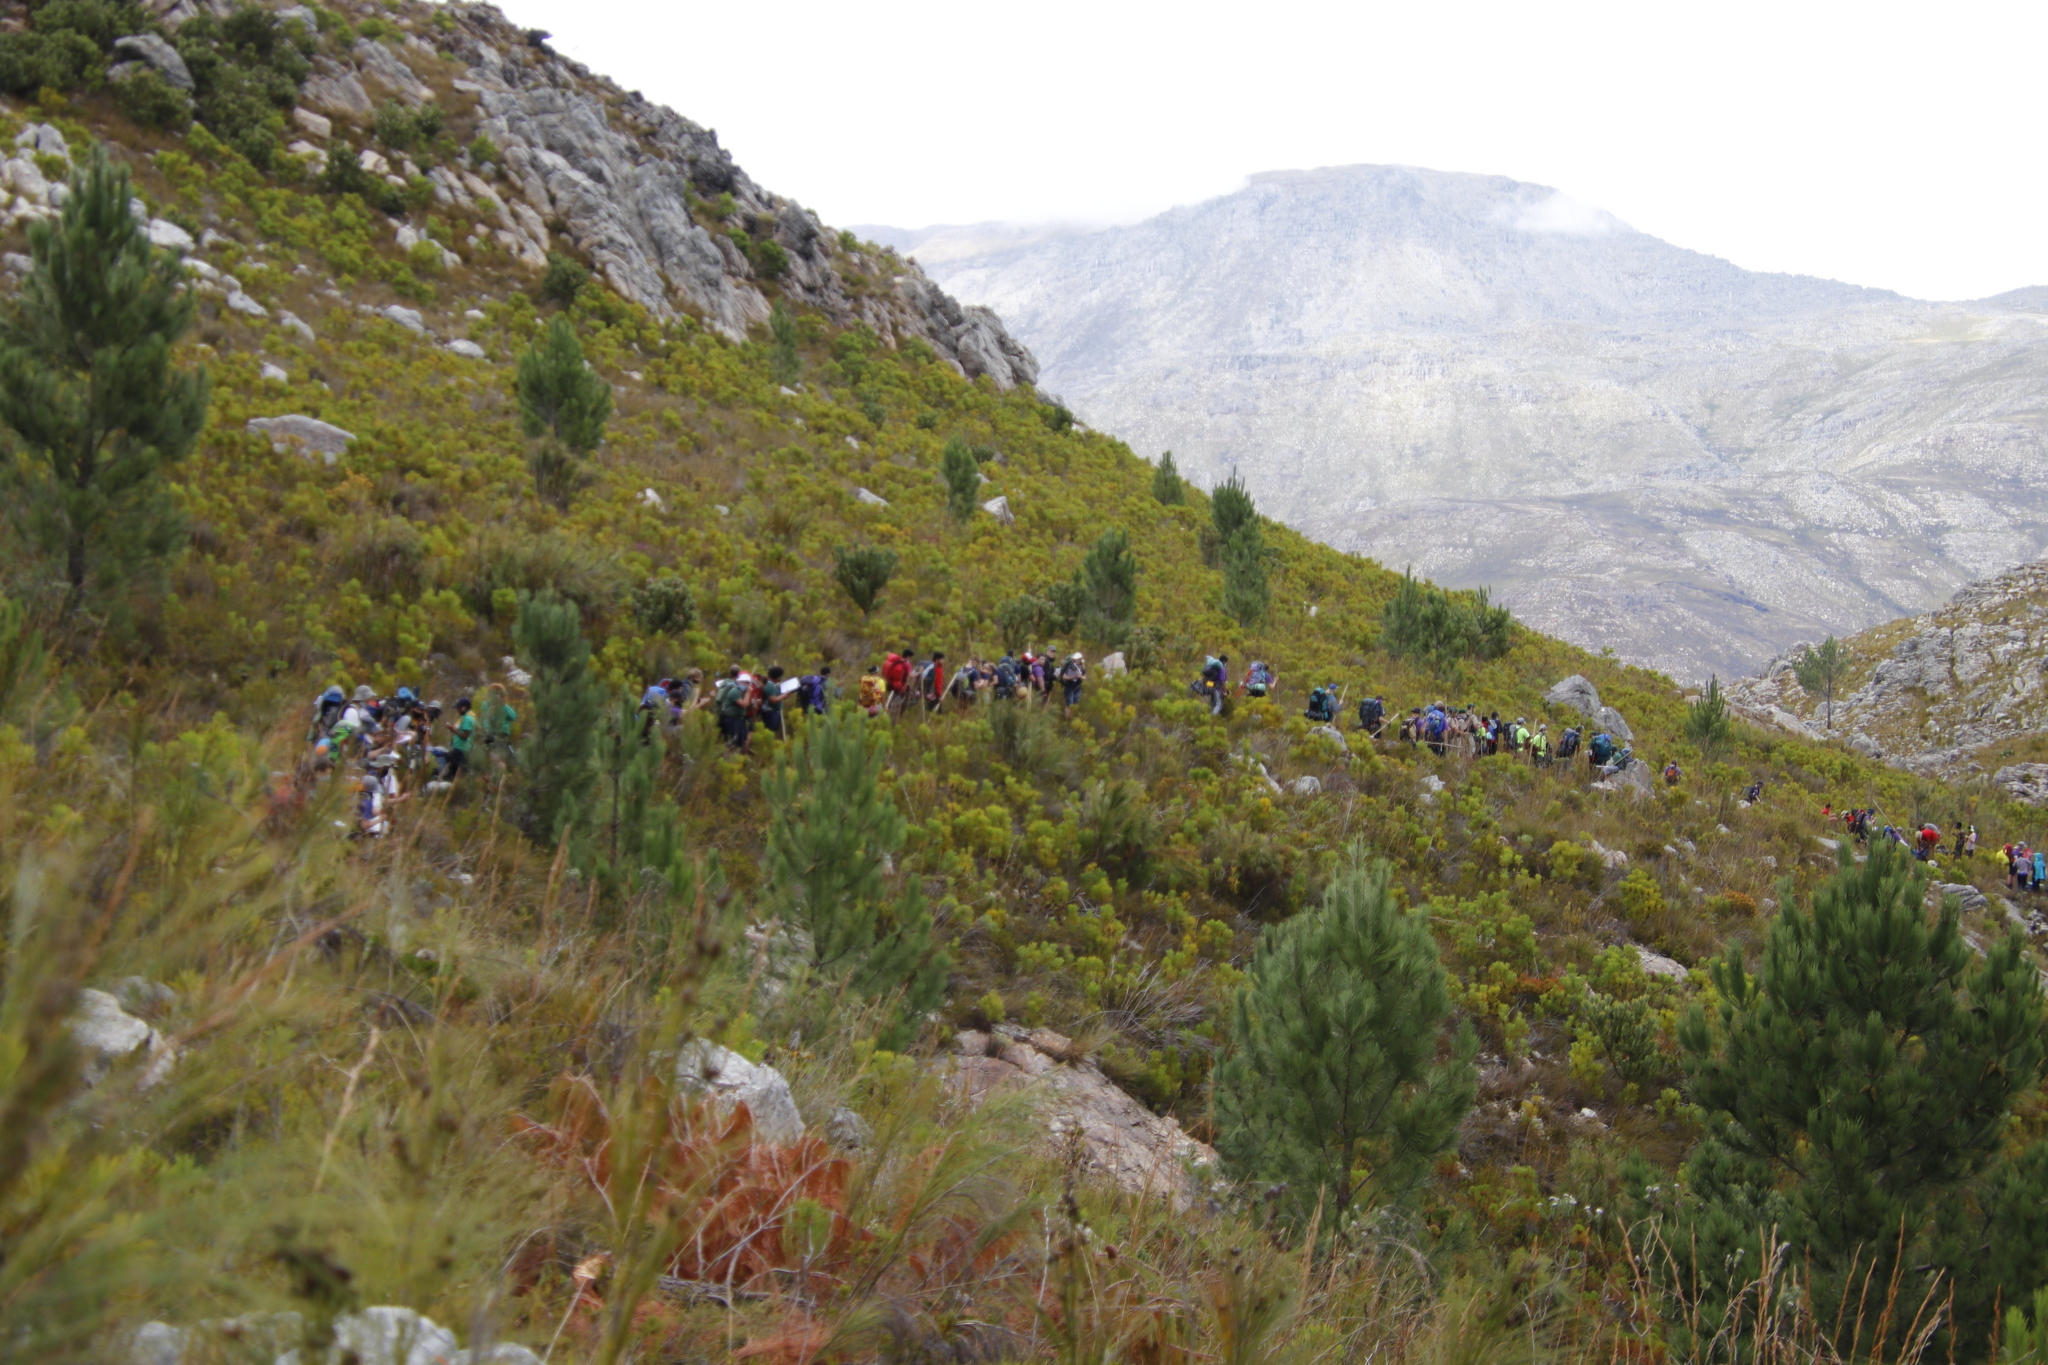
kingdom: Plantae
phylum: Tracheophyta
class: Pinopsida
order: Pinales
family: Pinaceae
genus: Pinus
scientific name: Pinus pinaster
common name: Maritime pine
